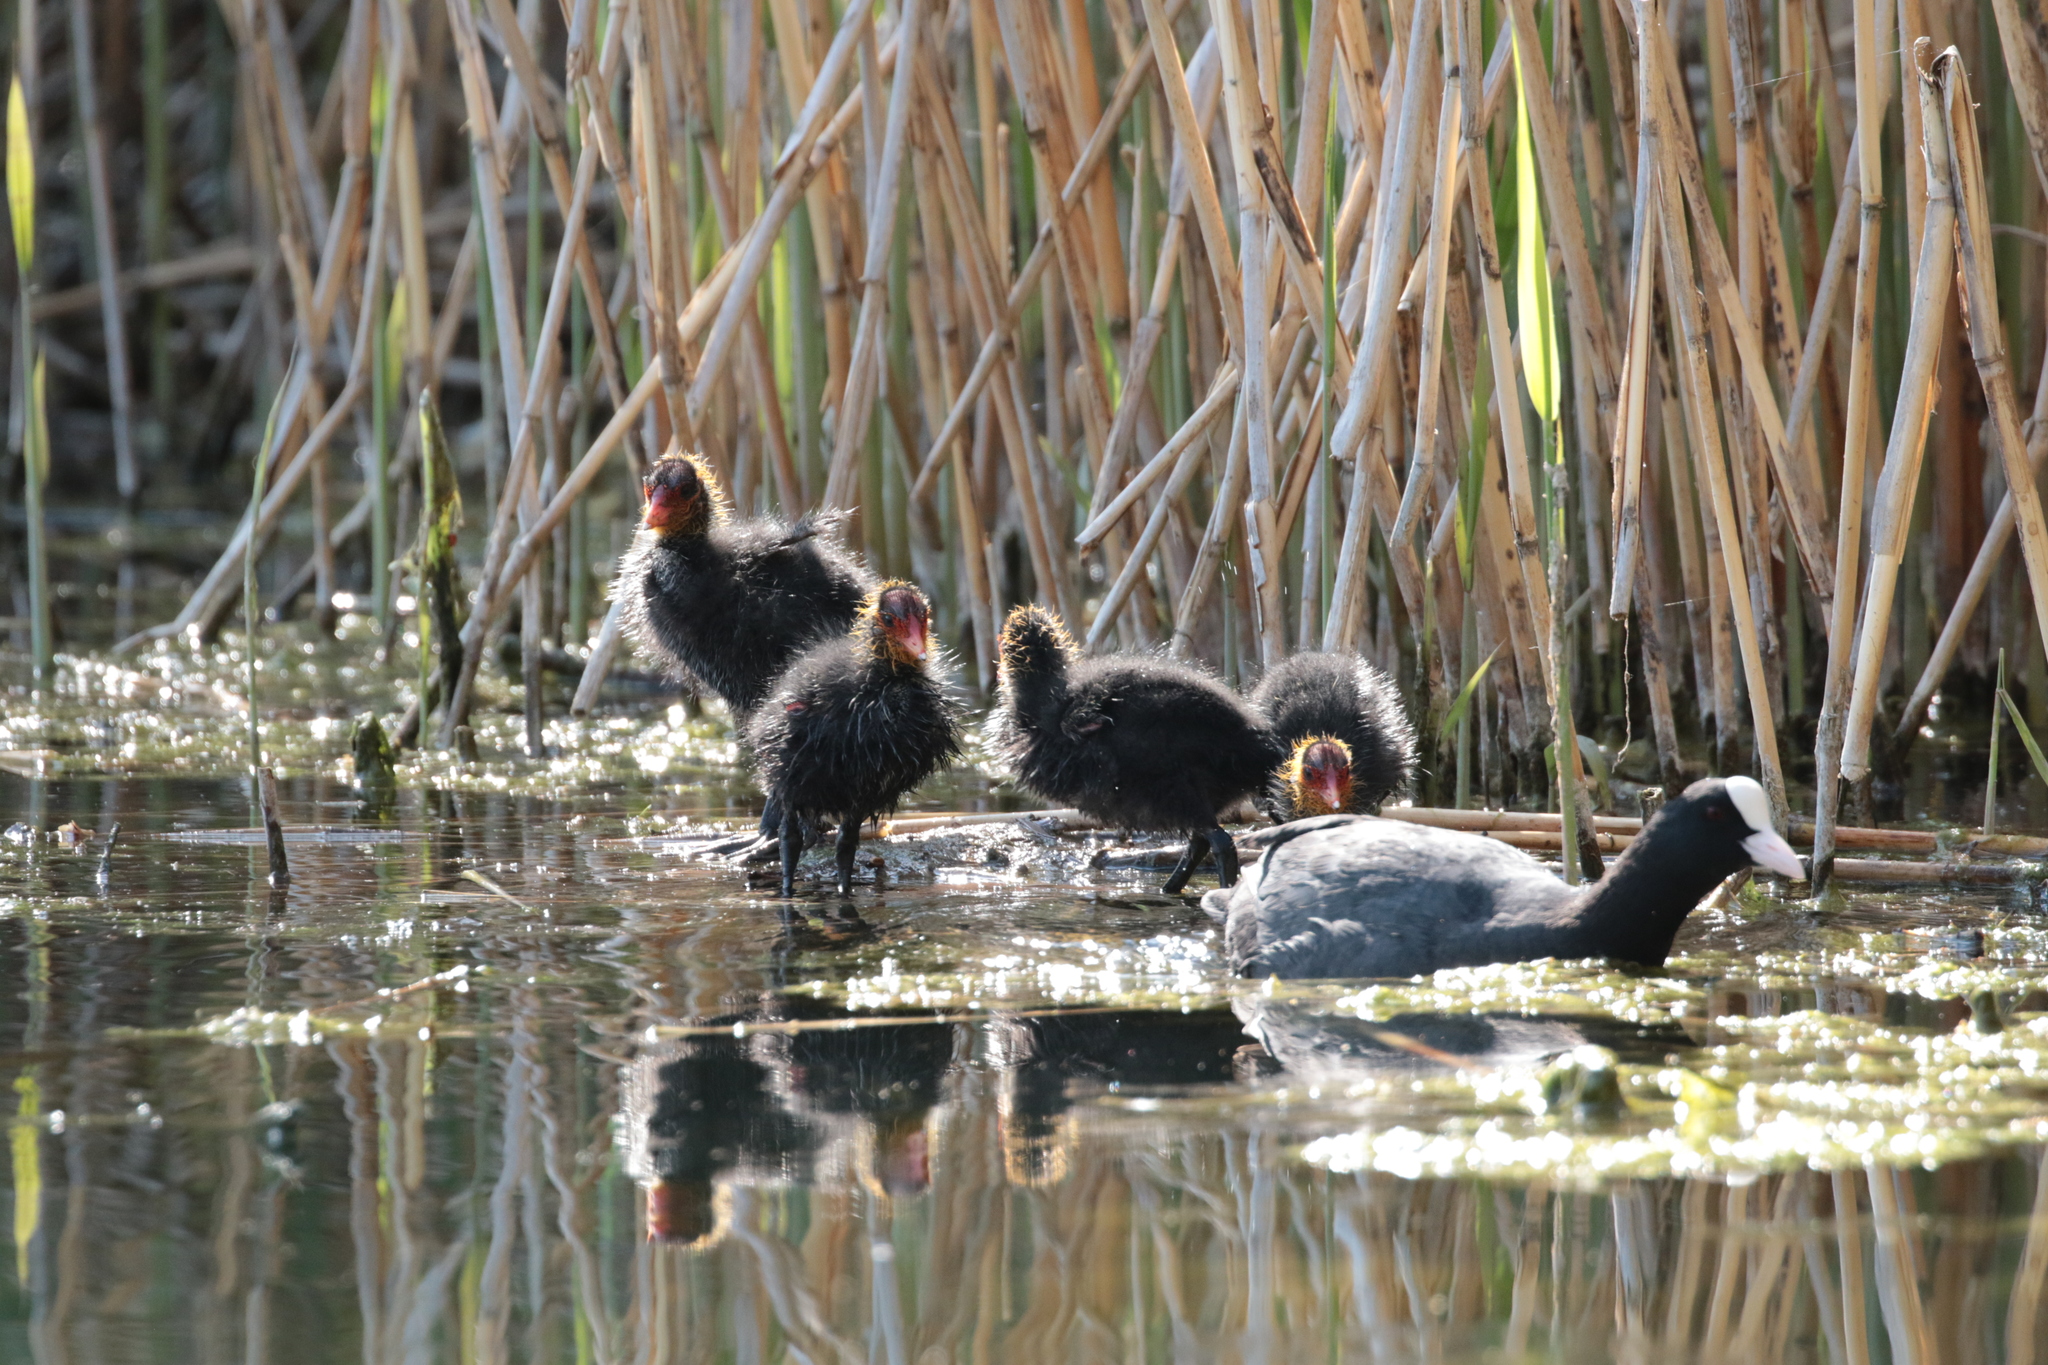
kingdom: Animalia
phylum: Chordata
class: Aves
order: Gruiformes
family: Rallidae
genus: Fulica
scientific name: Fulica atra
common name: Eurasian coot
